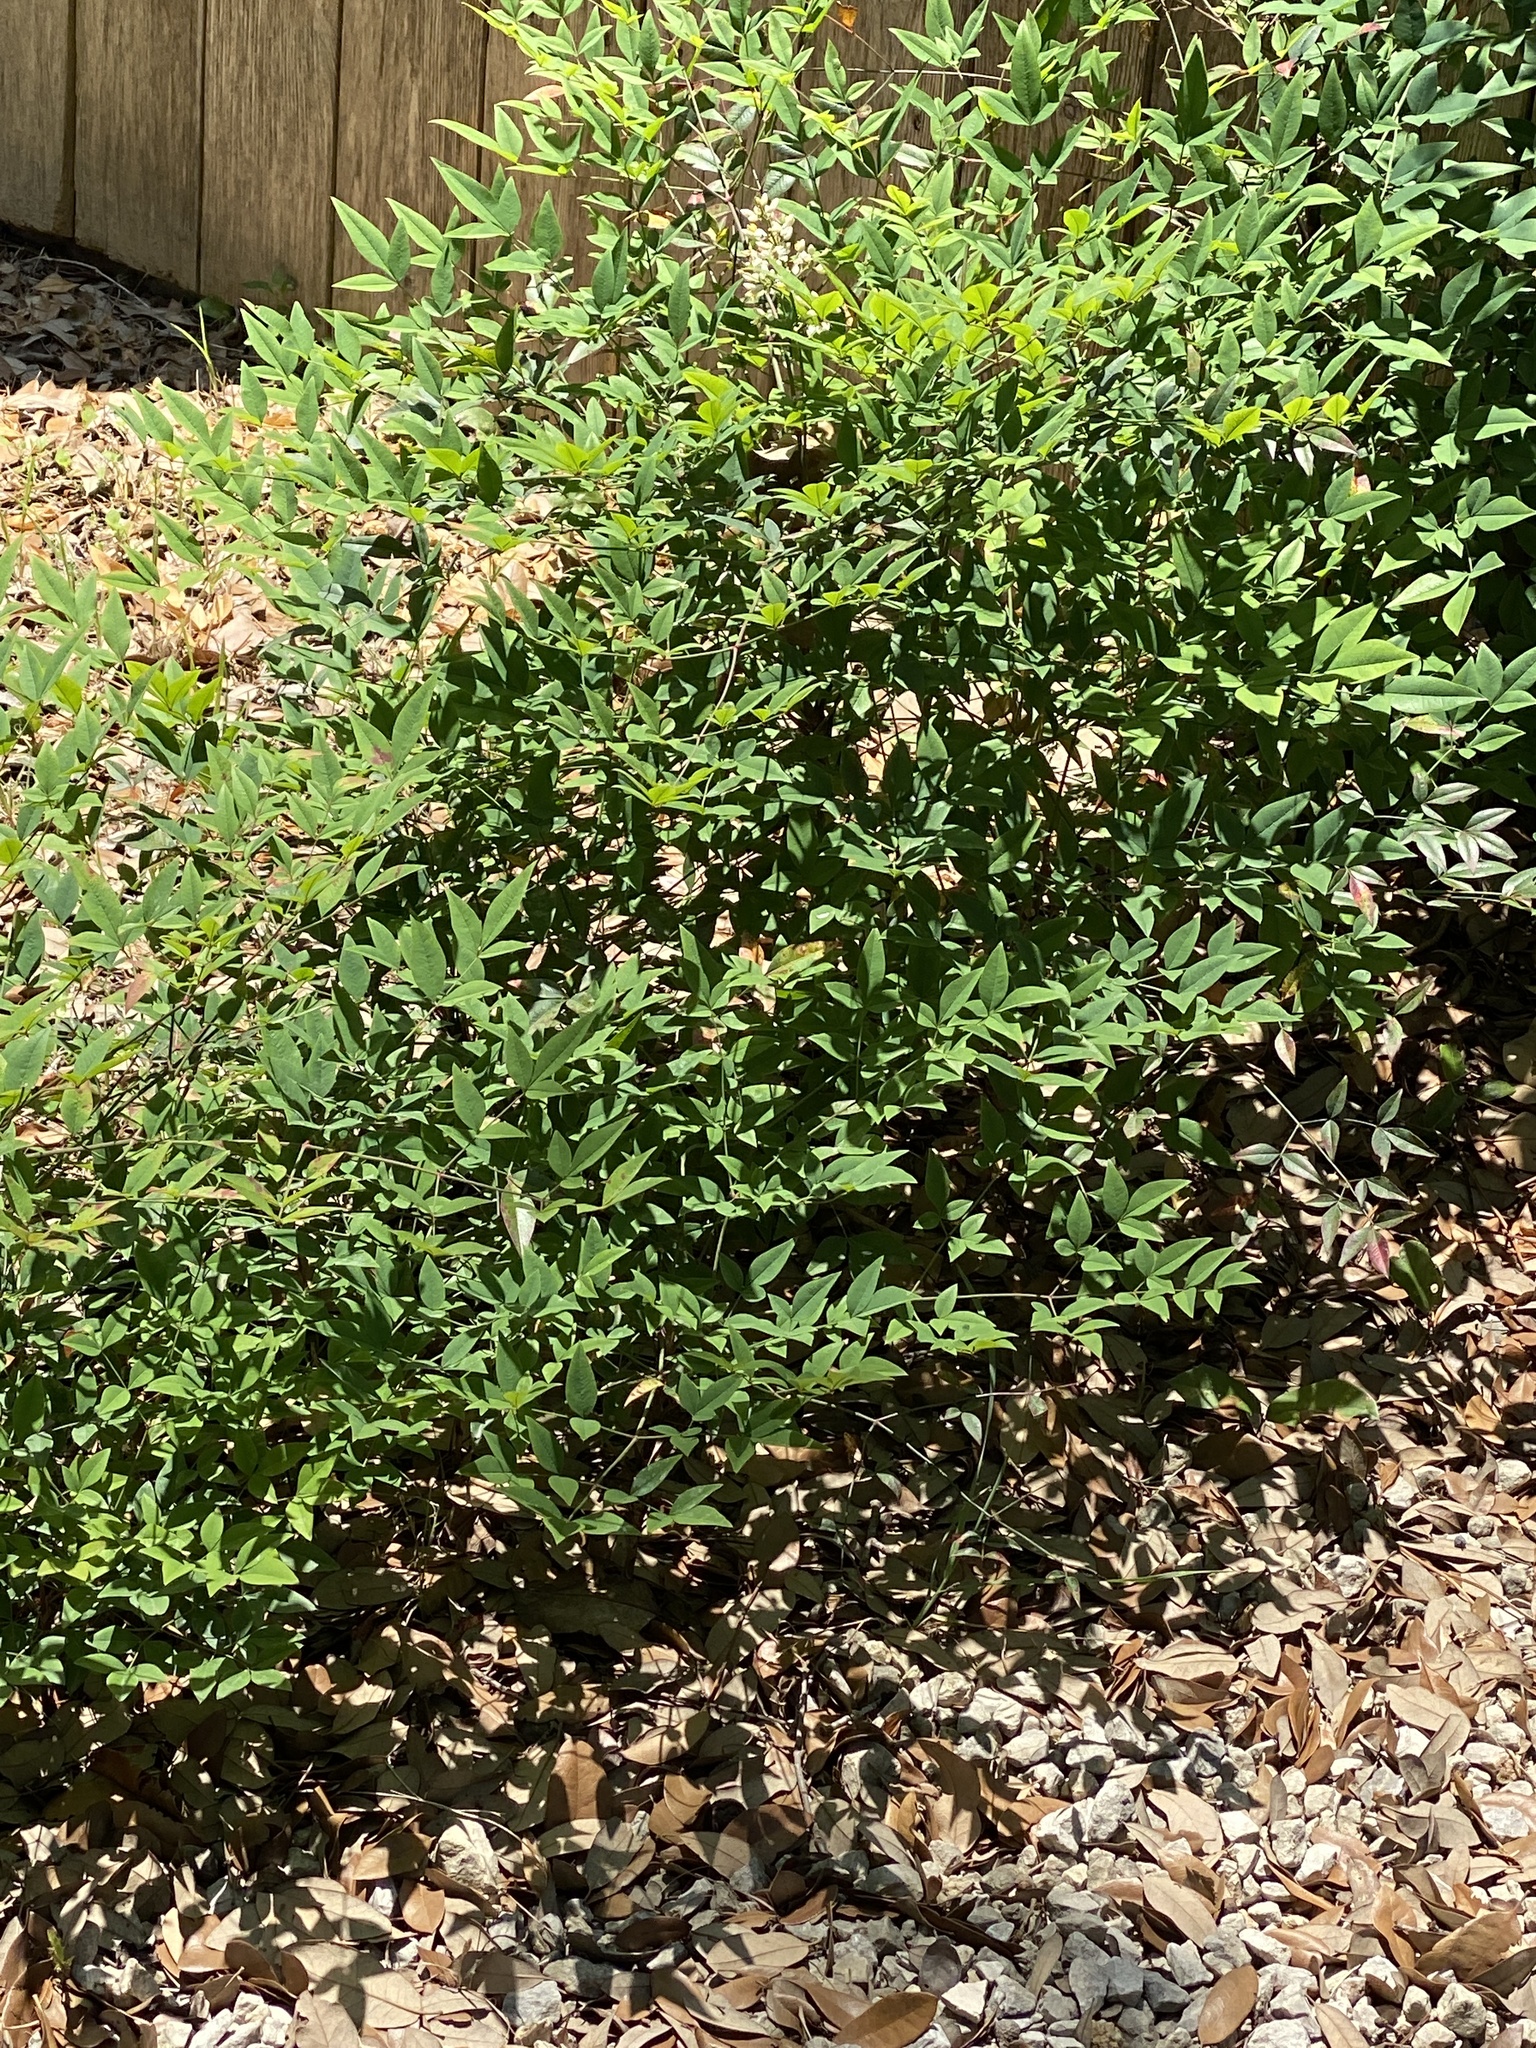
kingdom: Plantae
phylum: Tracheophyta
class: Magnoliopsida
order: Ranunculales
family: Berberidaceae
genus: Nandina
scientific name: Nandina domestica
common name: Sacred bamboo
